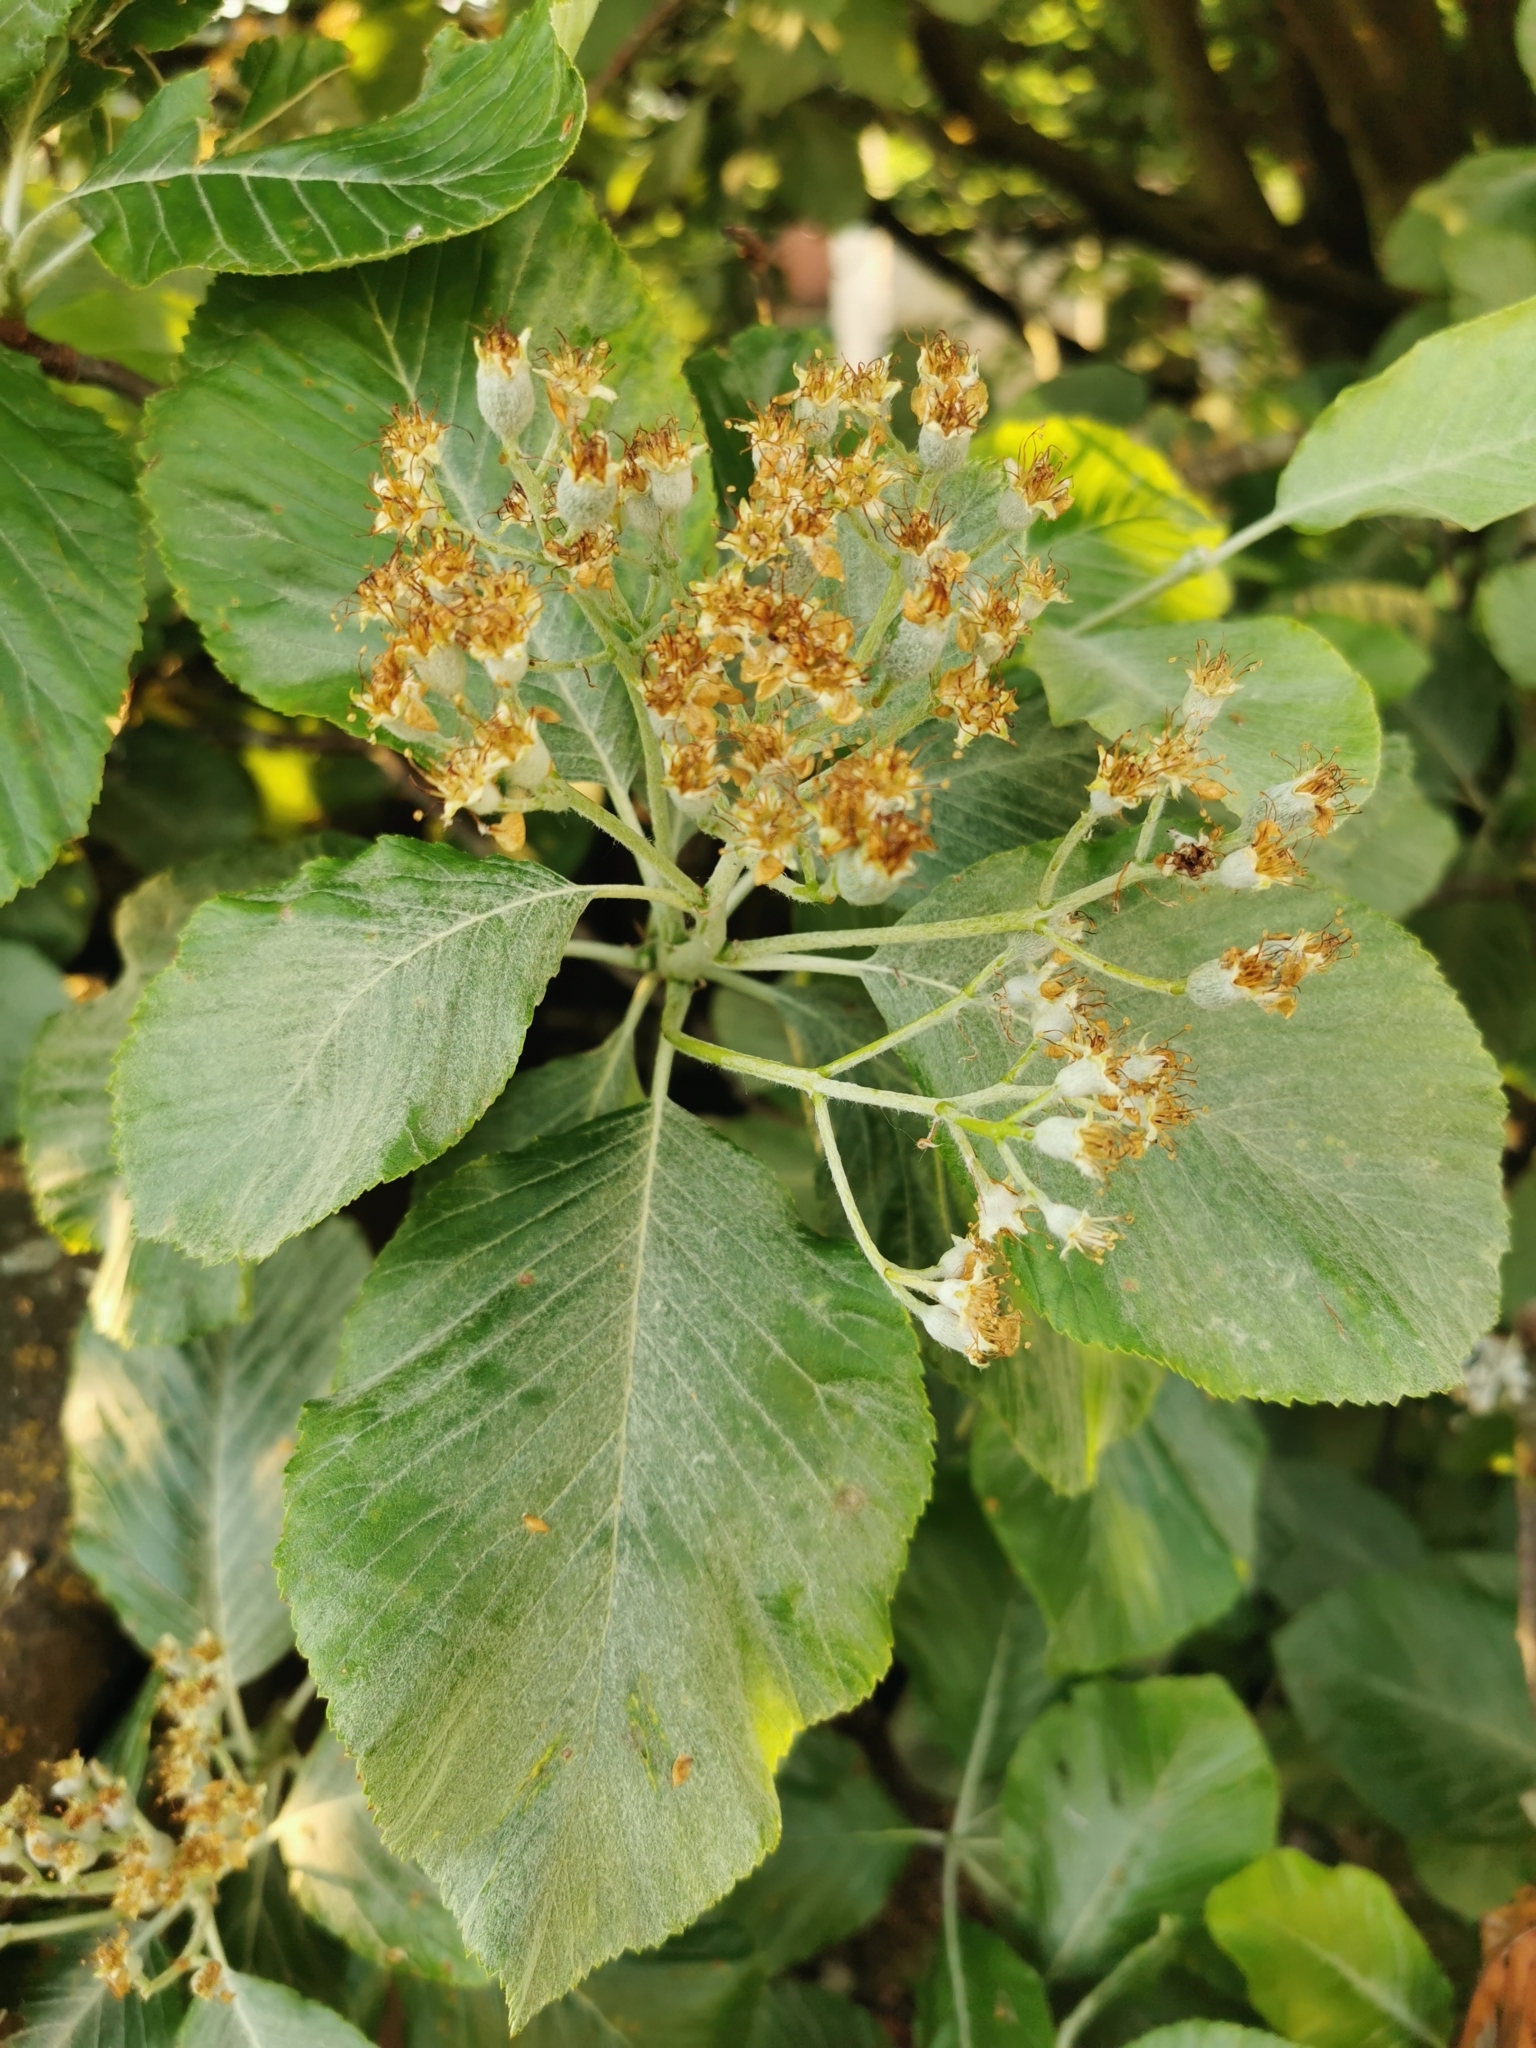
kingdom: Plantae
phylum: Tracheophyta
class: Magnoliopsida
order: Rosales
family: Rosaceae
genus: Aria
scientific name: Aria edulis
